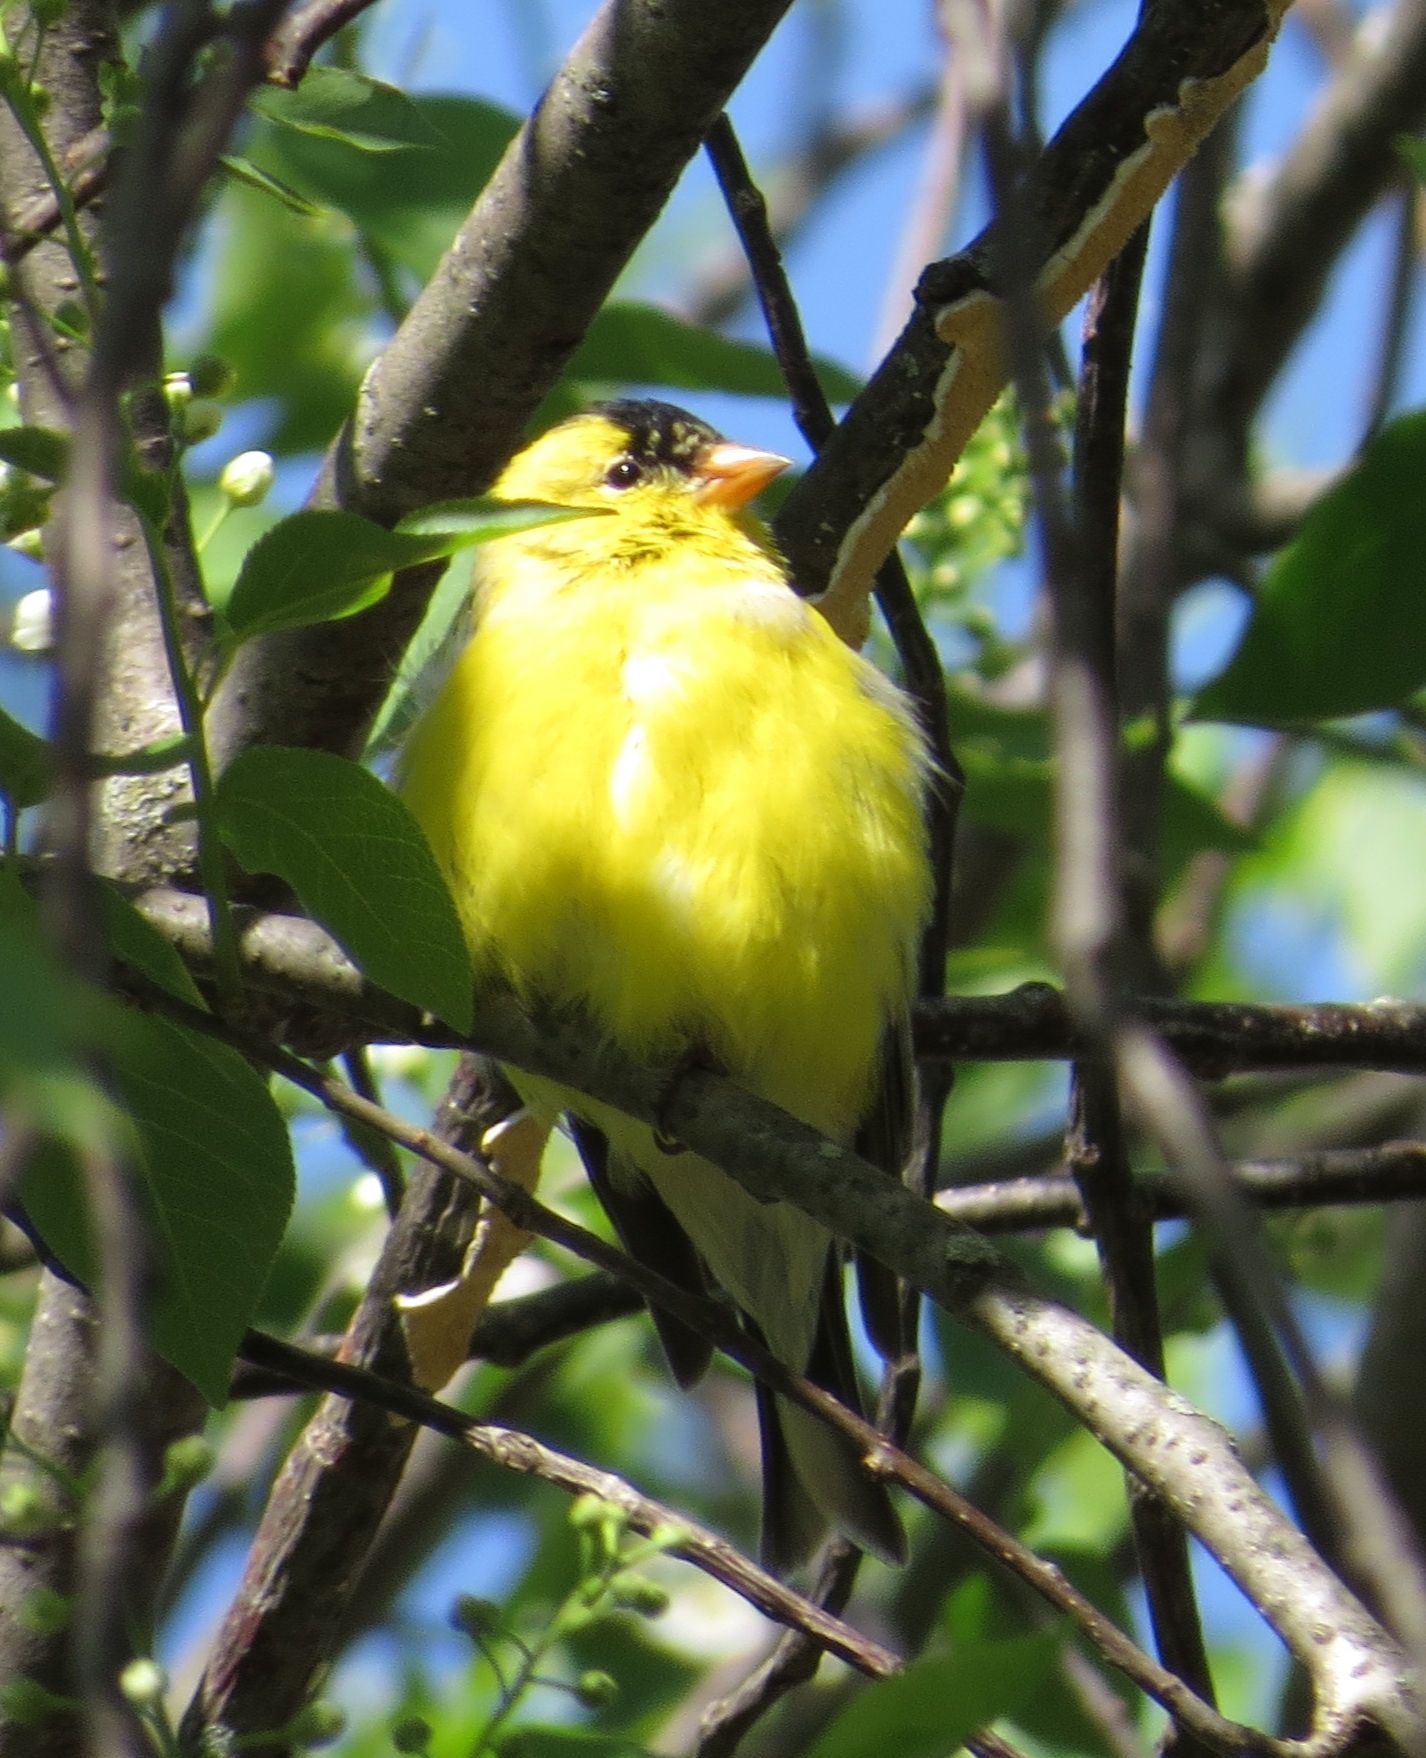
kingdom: Animalia
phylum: Chordata
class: Aves
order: Passeriformes
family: Fringillidae
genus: Spinus
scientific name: Spinus tristis
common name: American goldfinch
